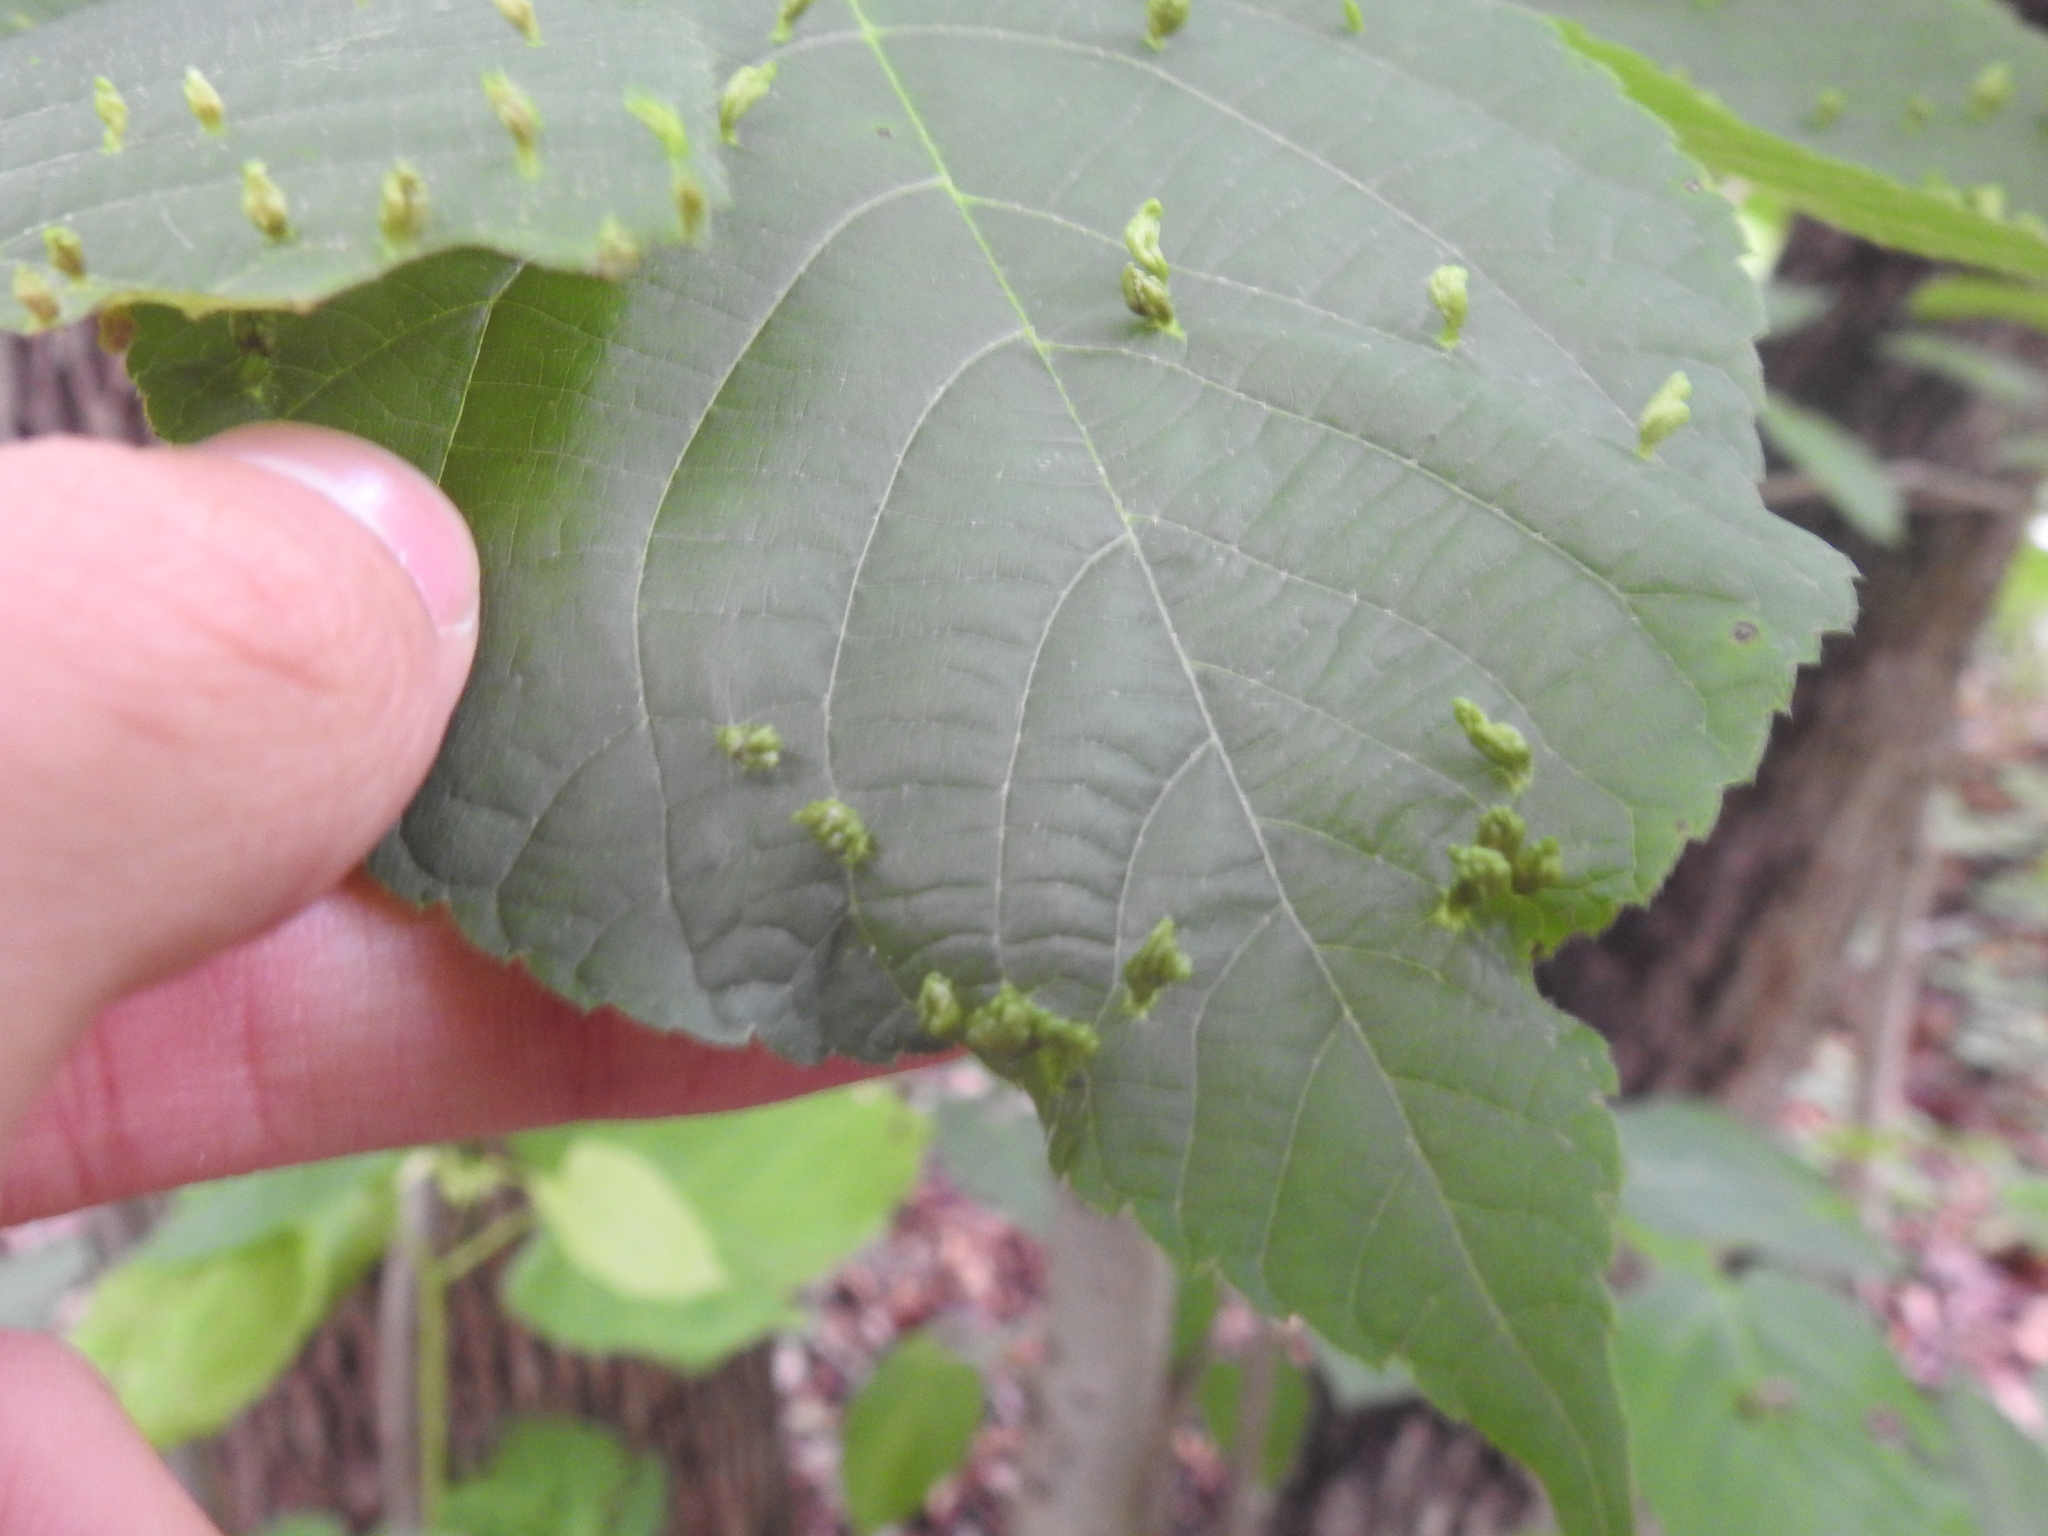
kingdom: Animalia
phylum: Arthropoda
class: Arachnida
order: Trombidiformes
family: Eriophyidae
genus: Eriophyes
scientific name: Eriophyes tiliae
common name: Red nail gall mite
